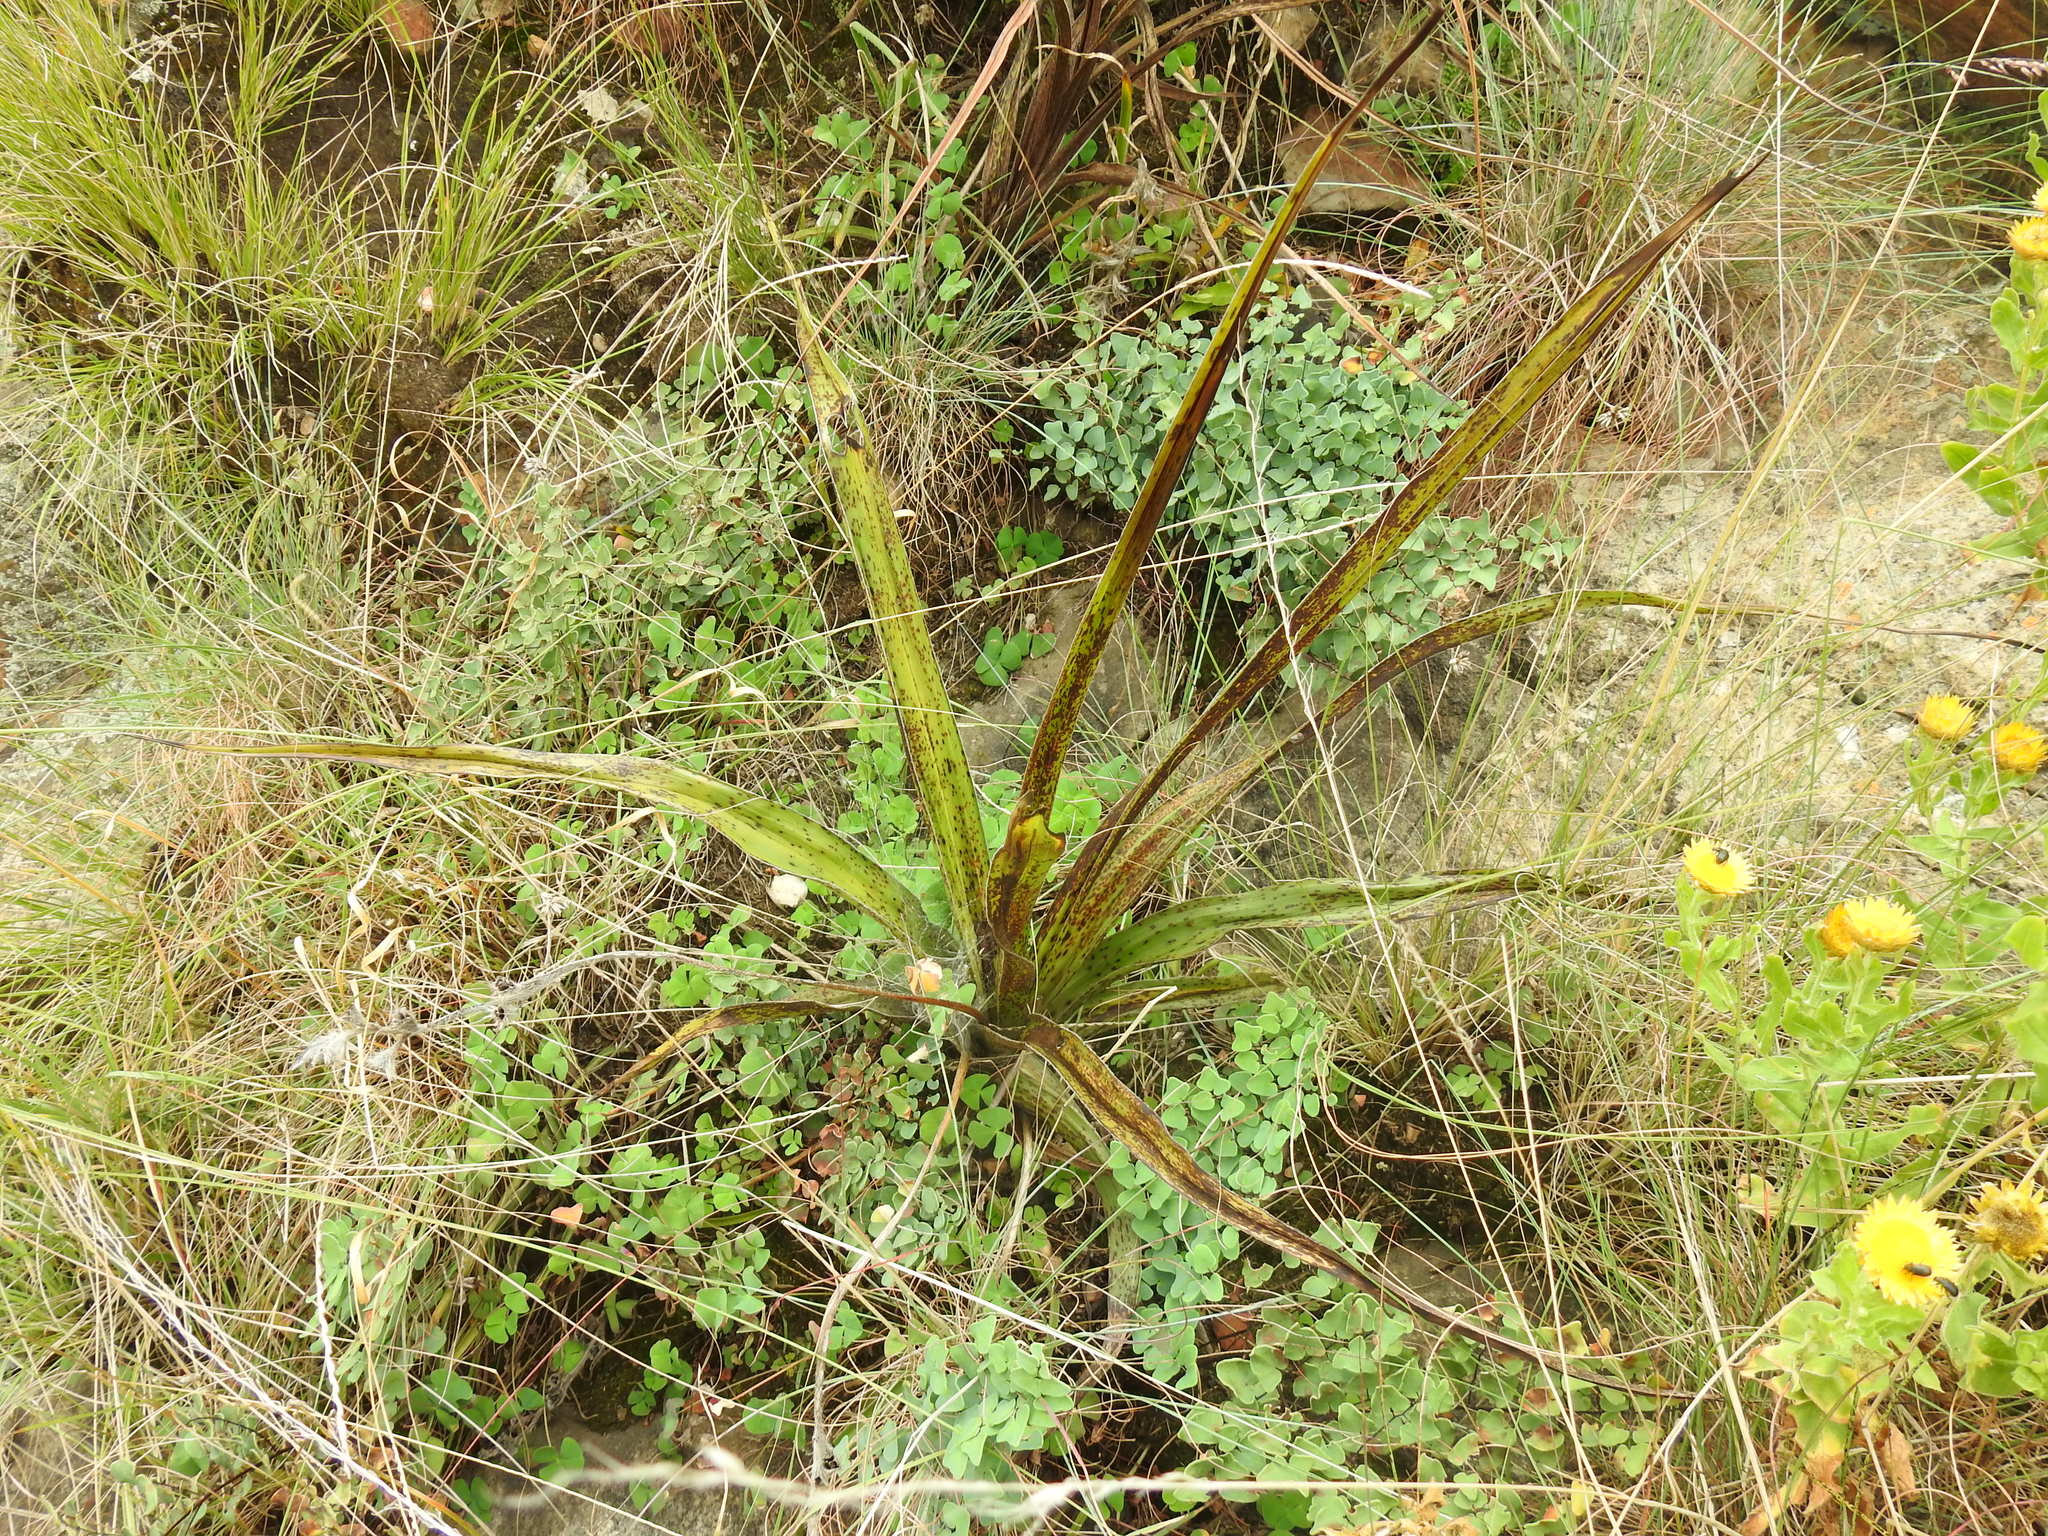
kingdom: Plantae
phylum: Tracheophyta
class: Liliopsida
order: Asparagales
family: Hypoxidaceae
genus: Hypoxis
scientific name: Hypoxis obtusa
